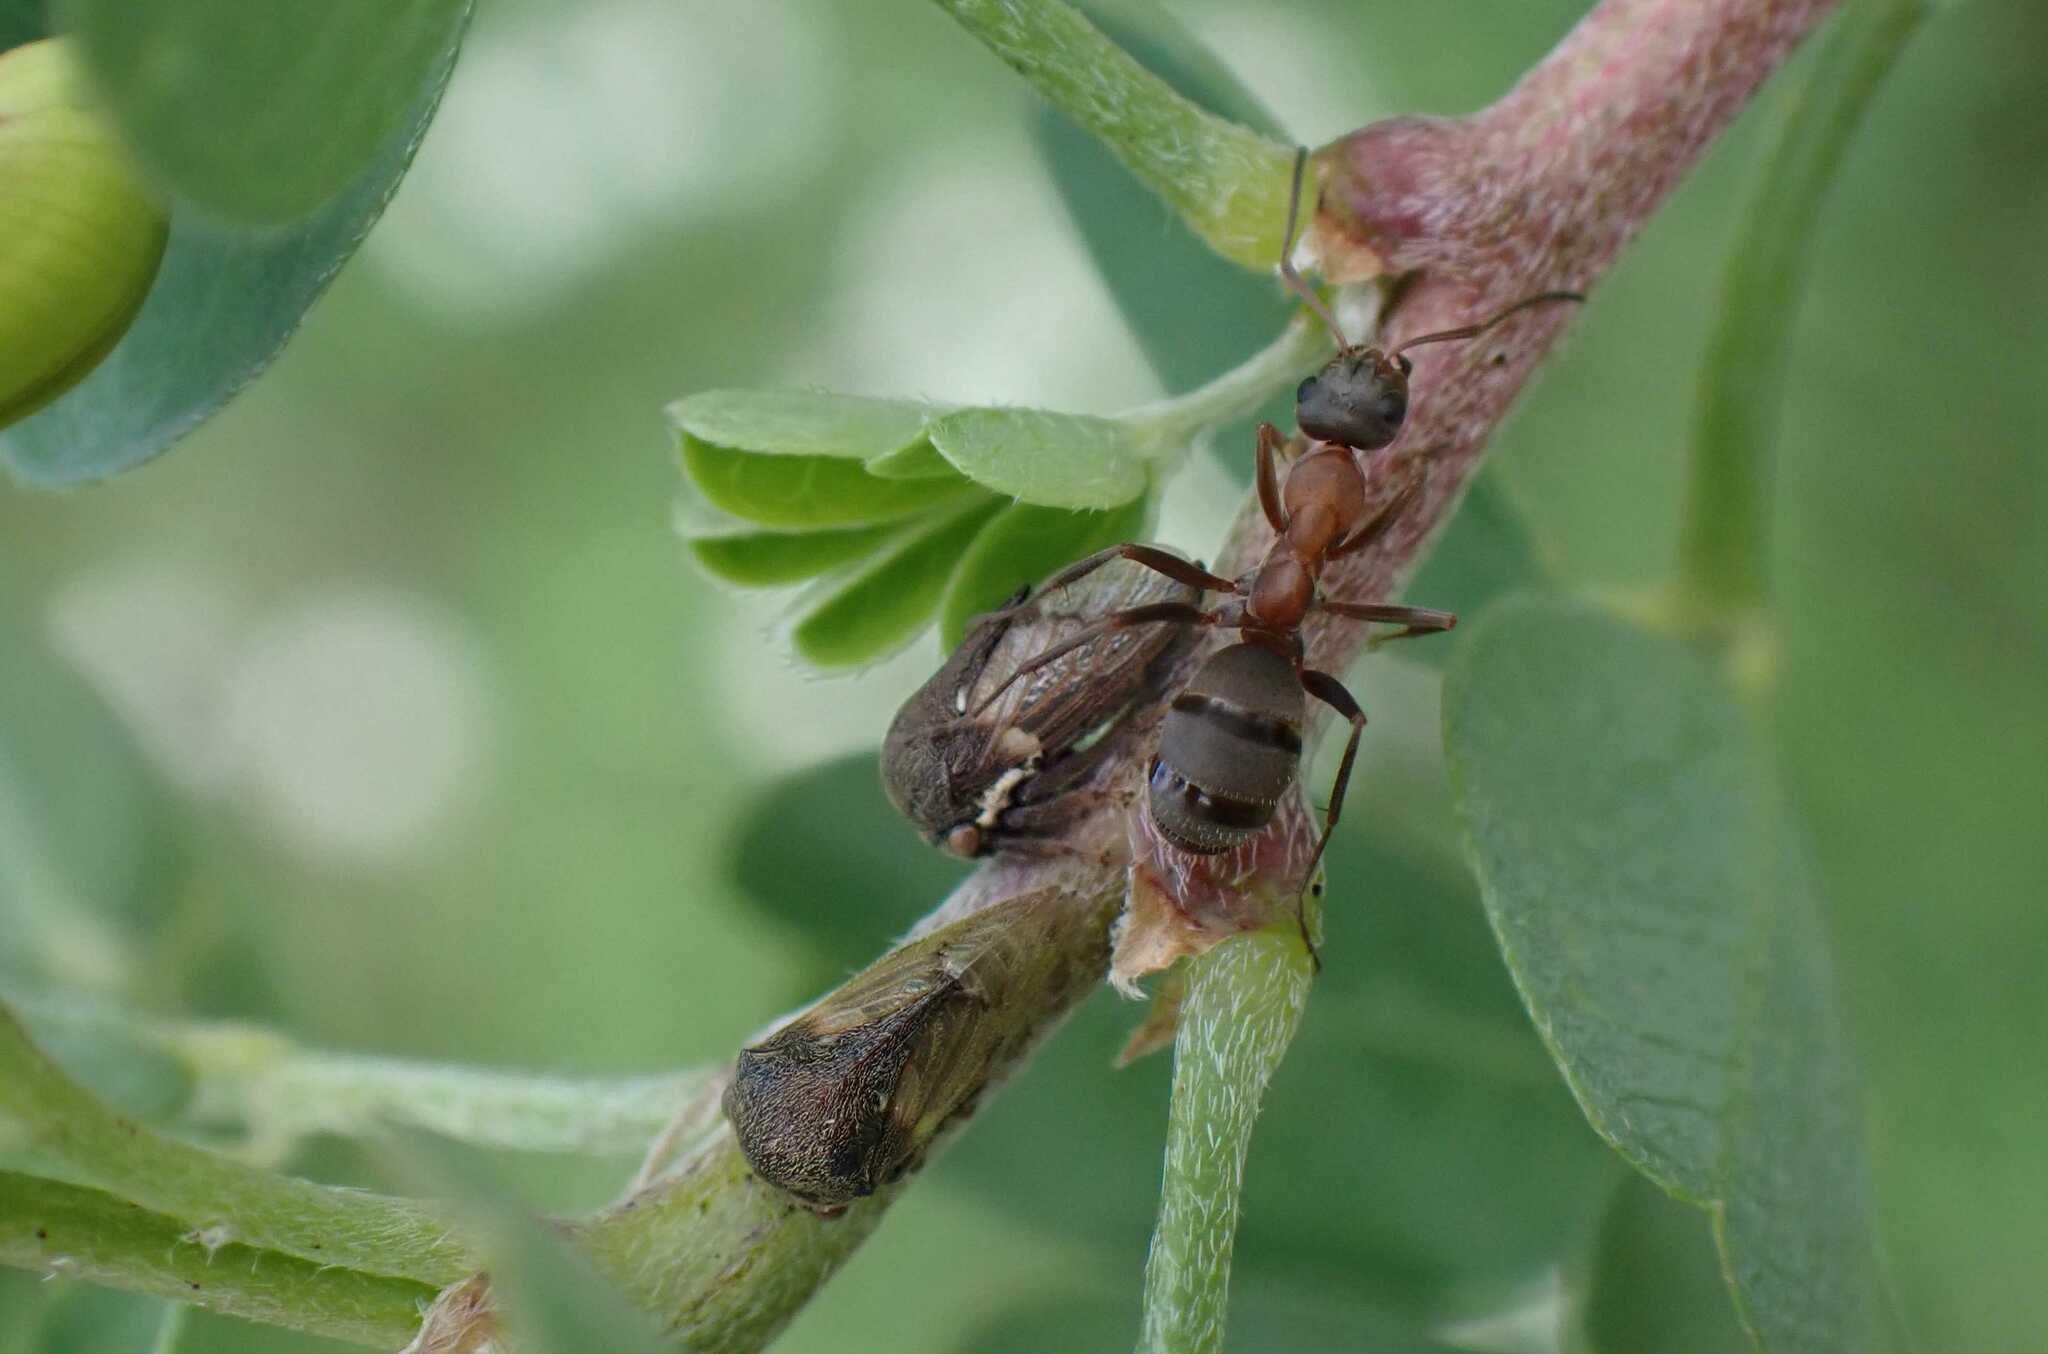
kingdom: Animalia
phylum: Arthropoda
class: Insecta
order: Hymenoptera
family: Formicidae
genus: Formica
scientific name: Formica
